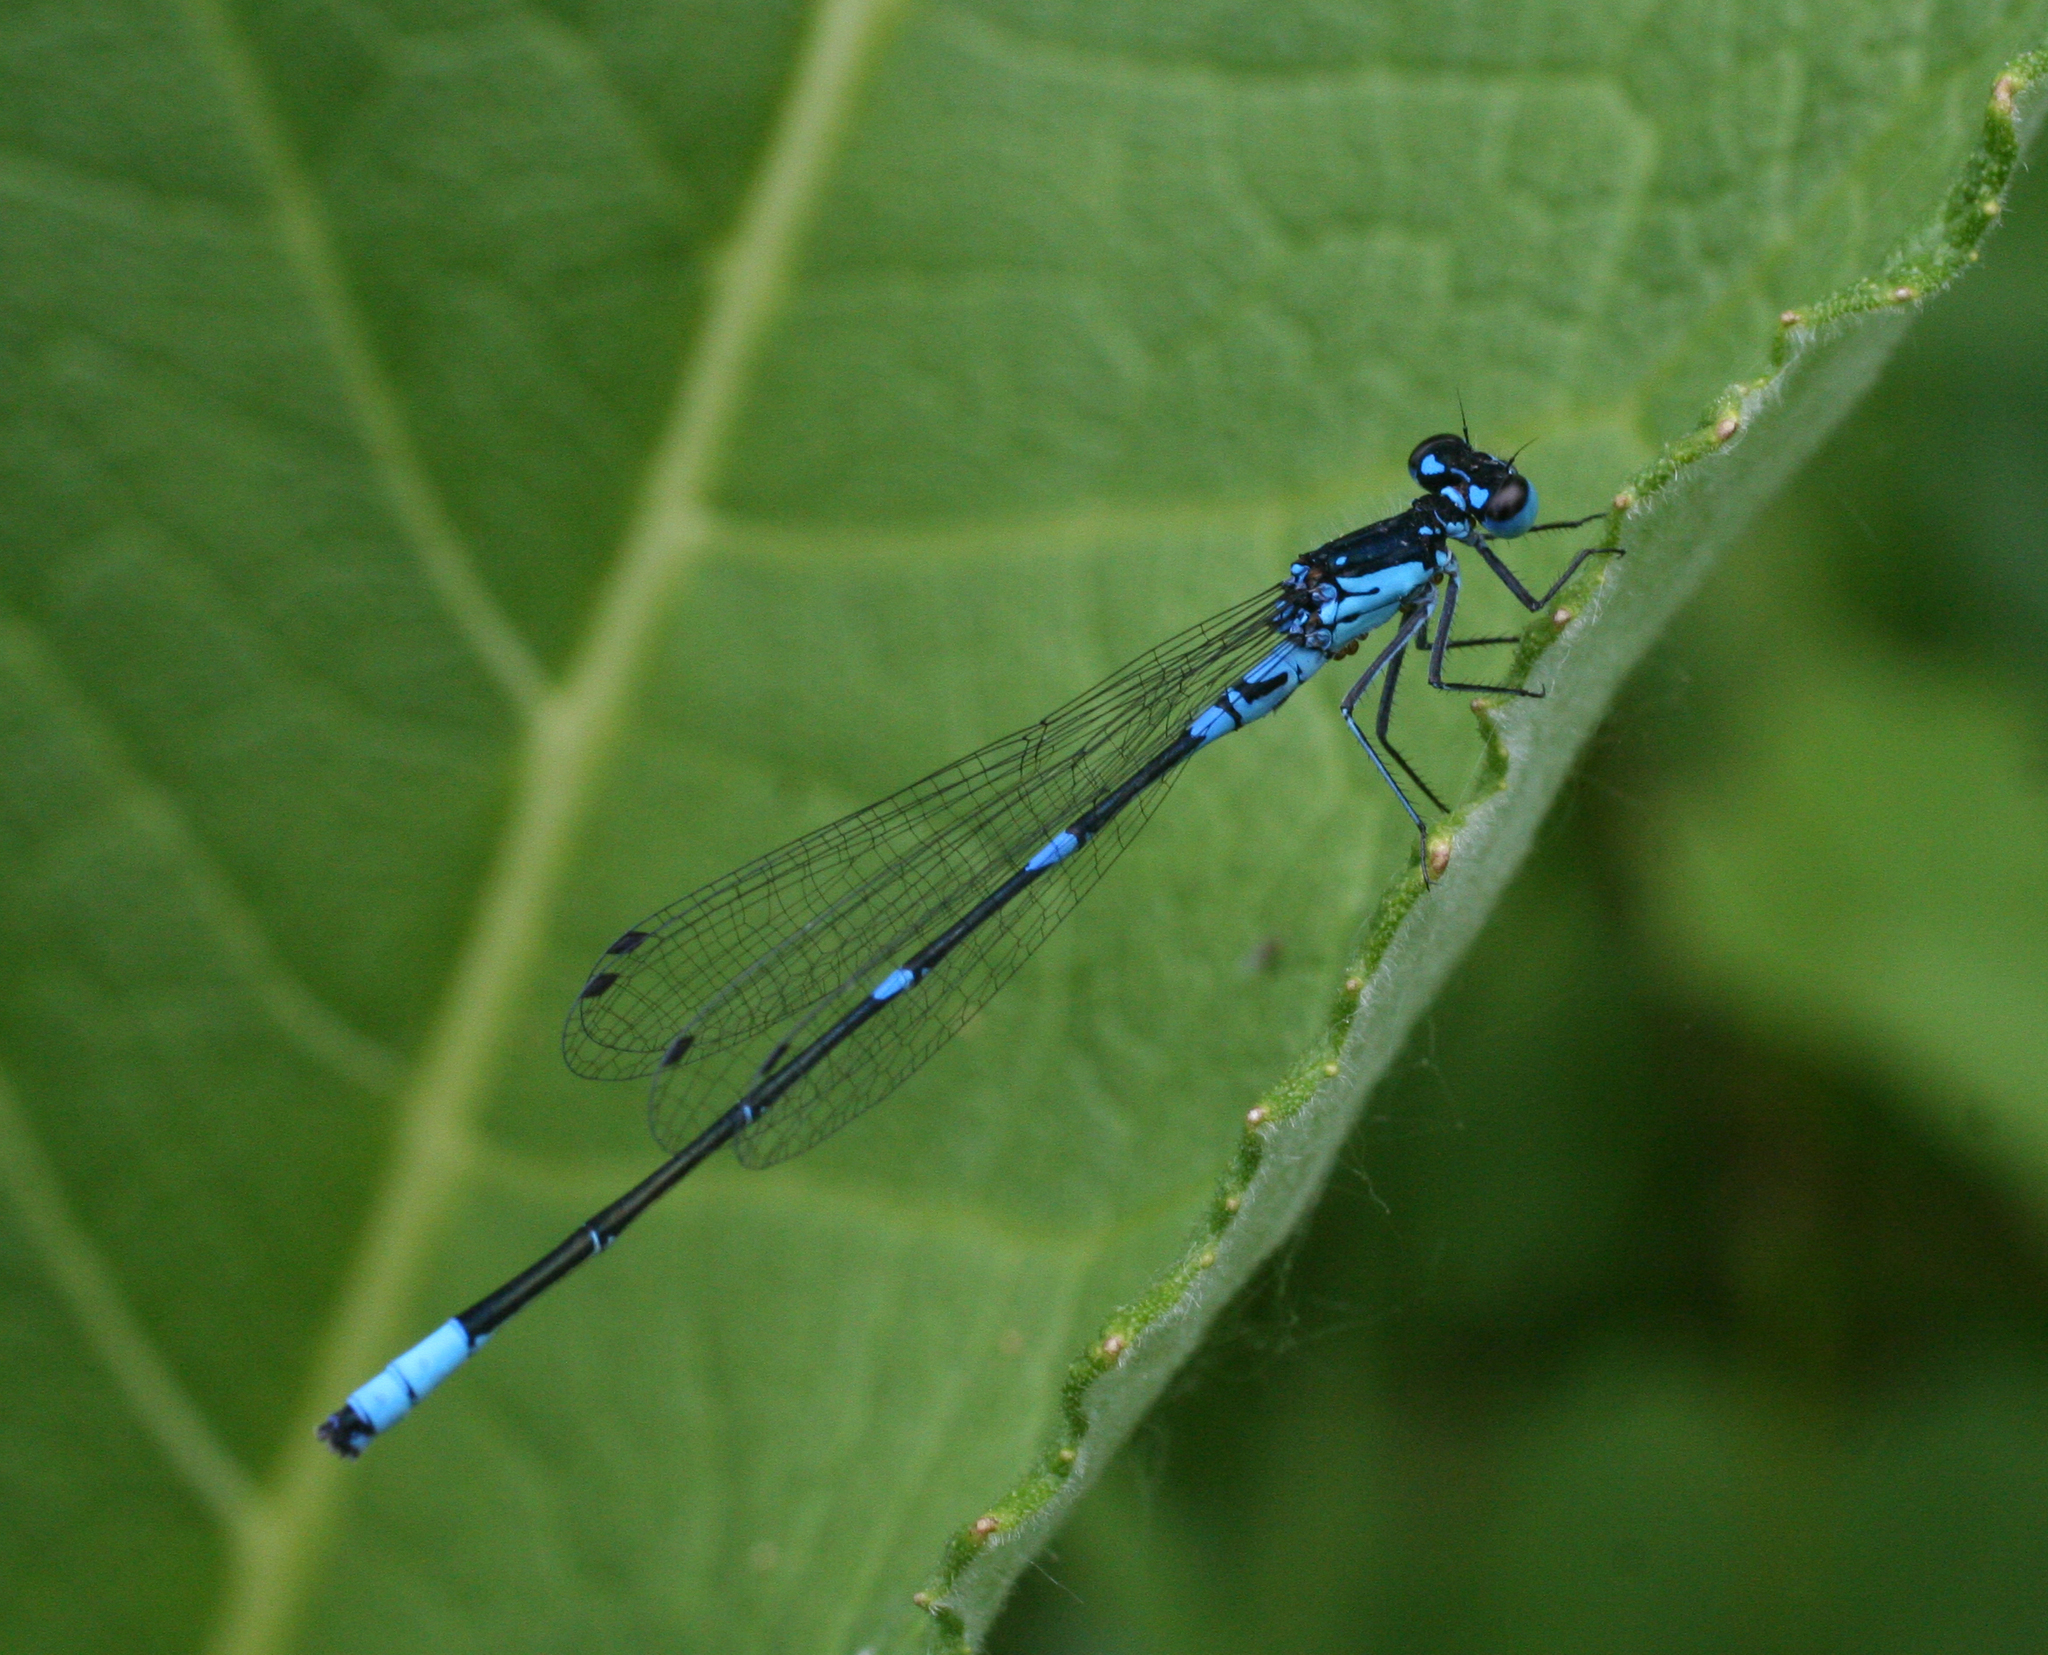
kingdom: Animalia
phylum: Arthropoda
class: Insecta
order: Odonata
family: Coenagrionidae
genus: Coenagrion
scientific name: Coenagrion pulchellum
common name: Variable bluet
